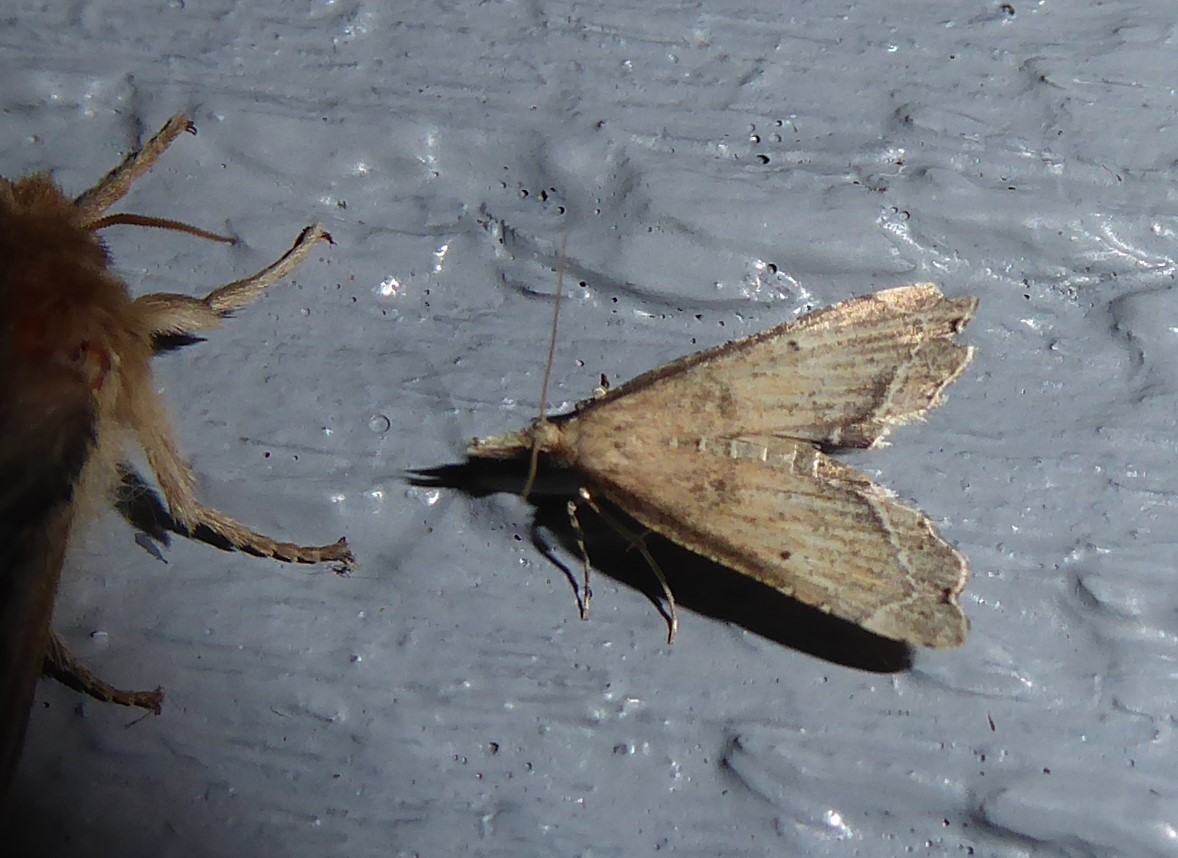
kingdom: Animalia
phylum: Arthropoda
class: Insecta
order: Lepidoptera
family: Crambidae
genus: Diplopseustis
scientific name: Diplopseustis perieresalis
